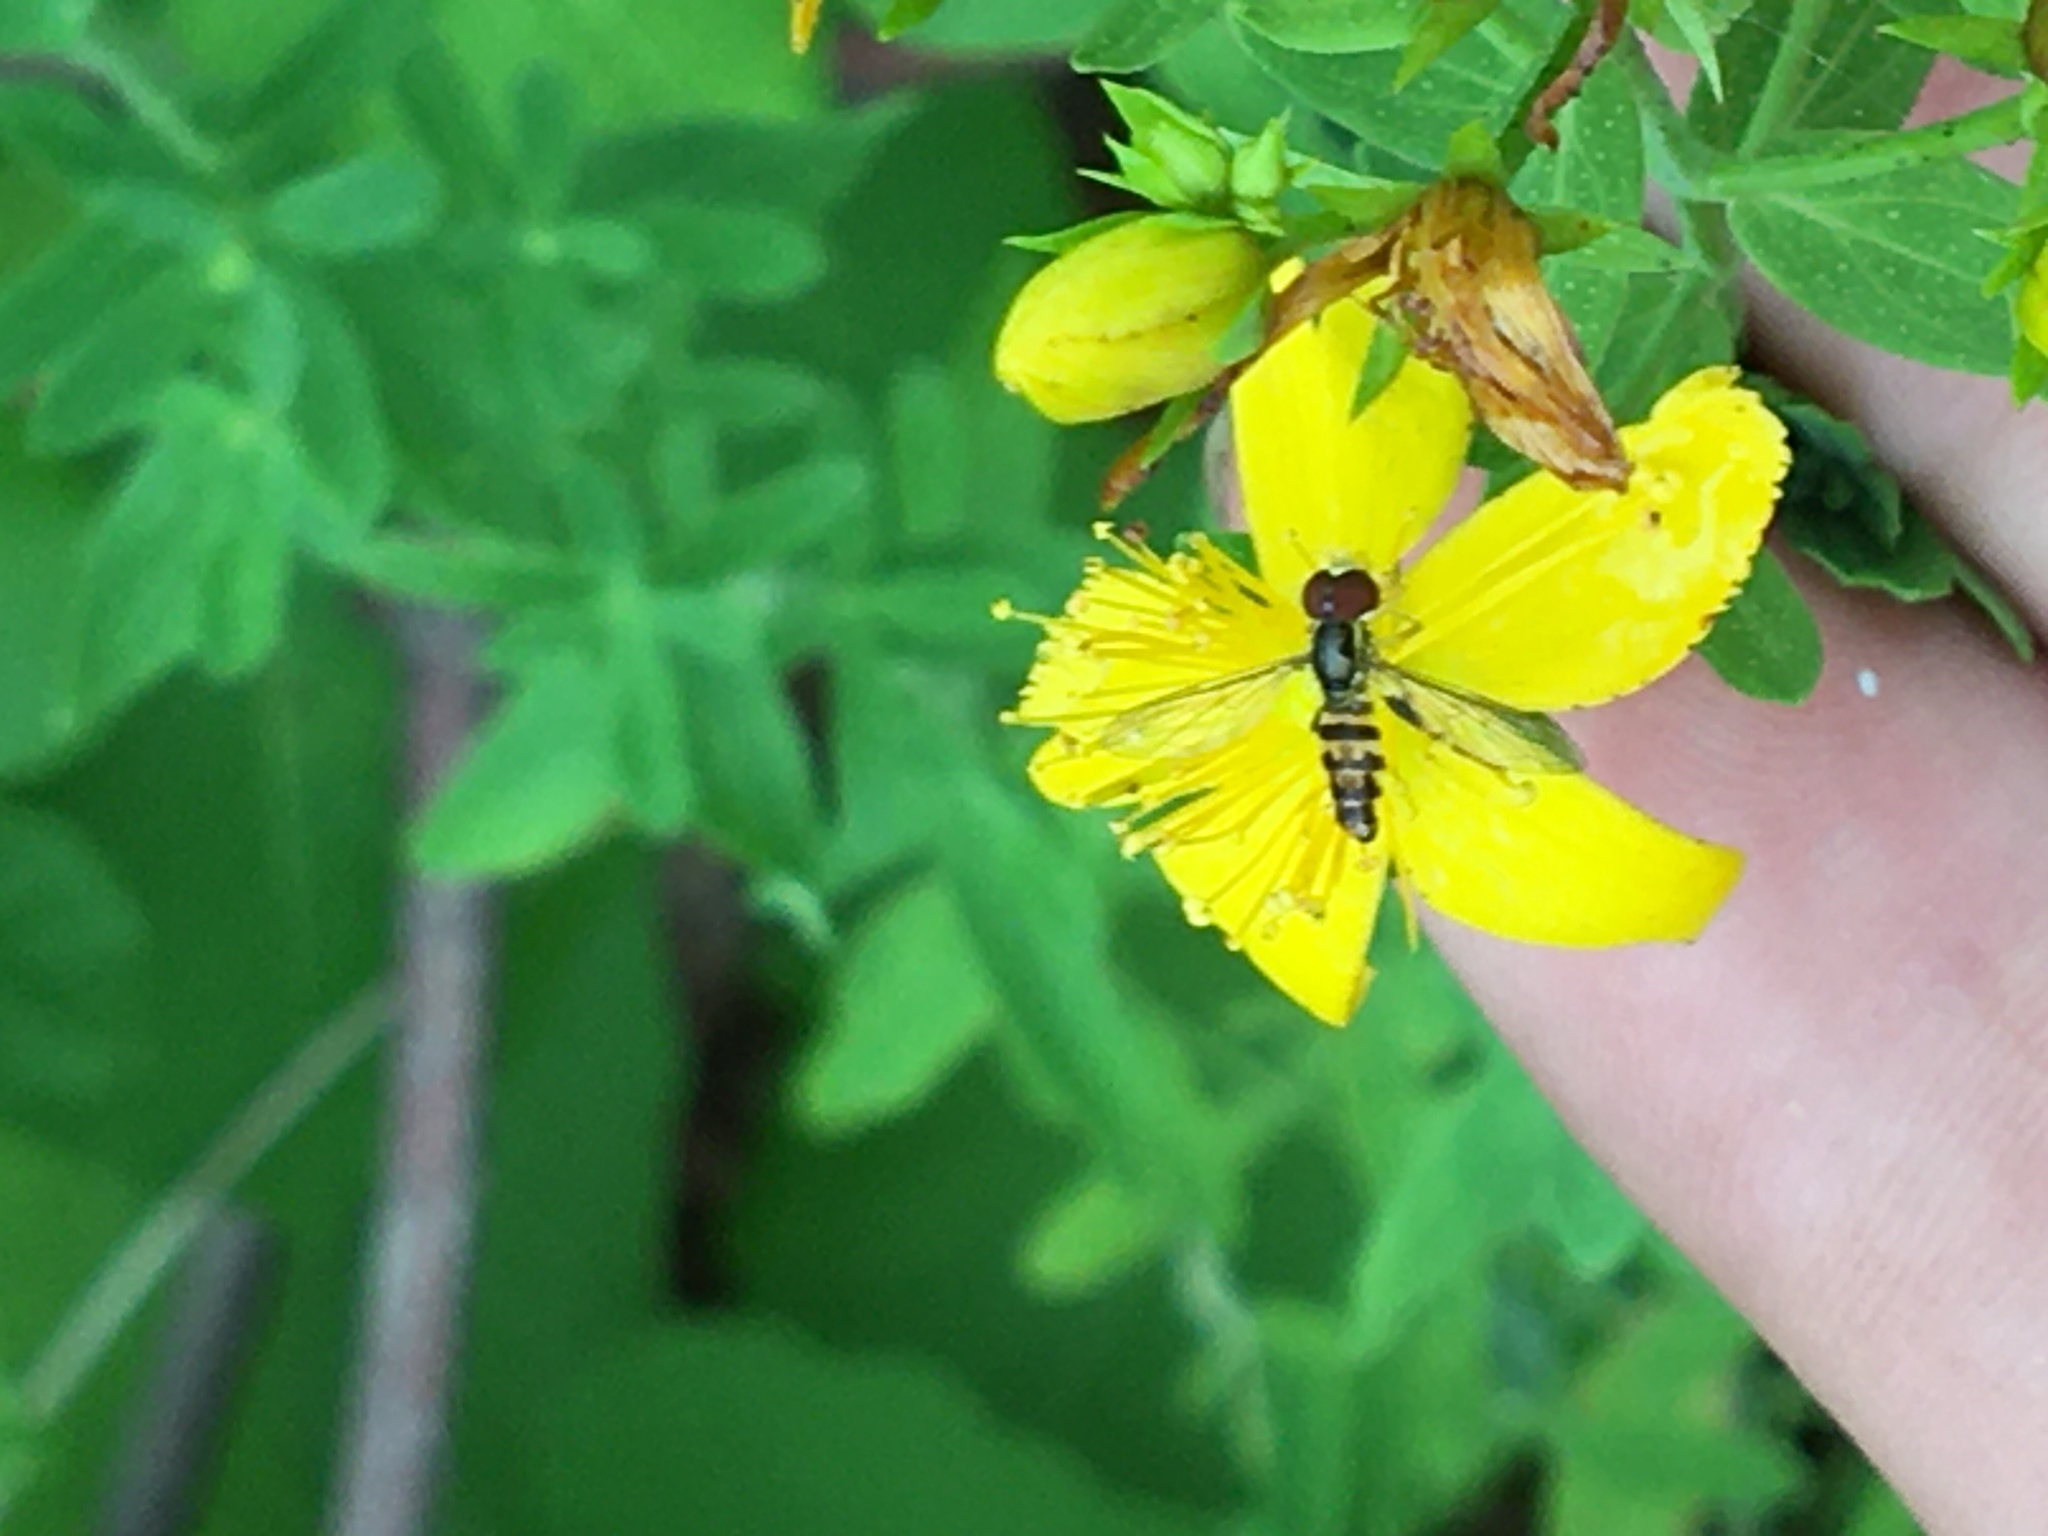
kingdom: Animalia
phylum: Arthropoda
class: Insecta
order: Diptera
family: Syrphidae
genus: Toxomerus
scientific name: Toxomerus geminatus
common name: Eastern calligrapher
